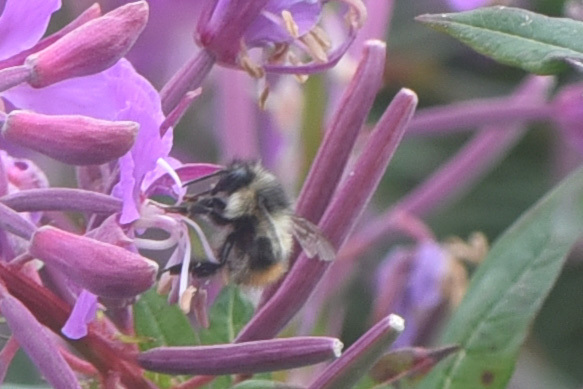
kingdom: Animalia
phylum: Arthropoda
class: Insecta
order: Hymenoptera
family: Apidae
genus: Bombus
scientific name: Bombus mixtus
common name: Fuzzy-horned bumble bee
